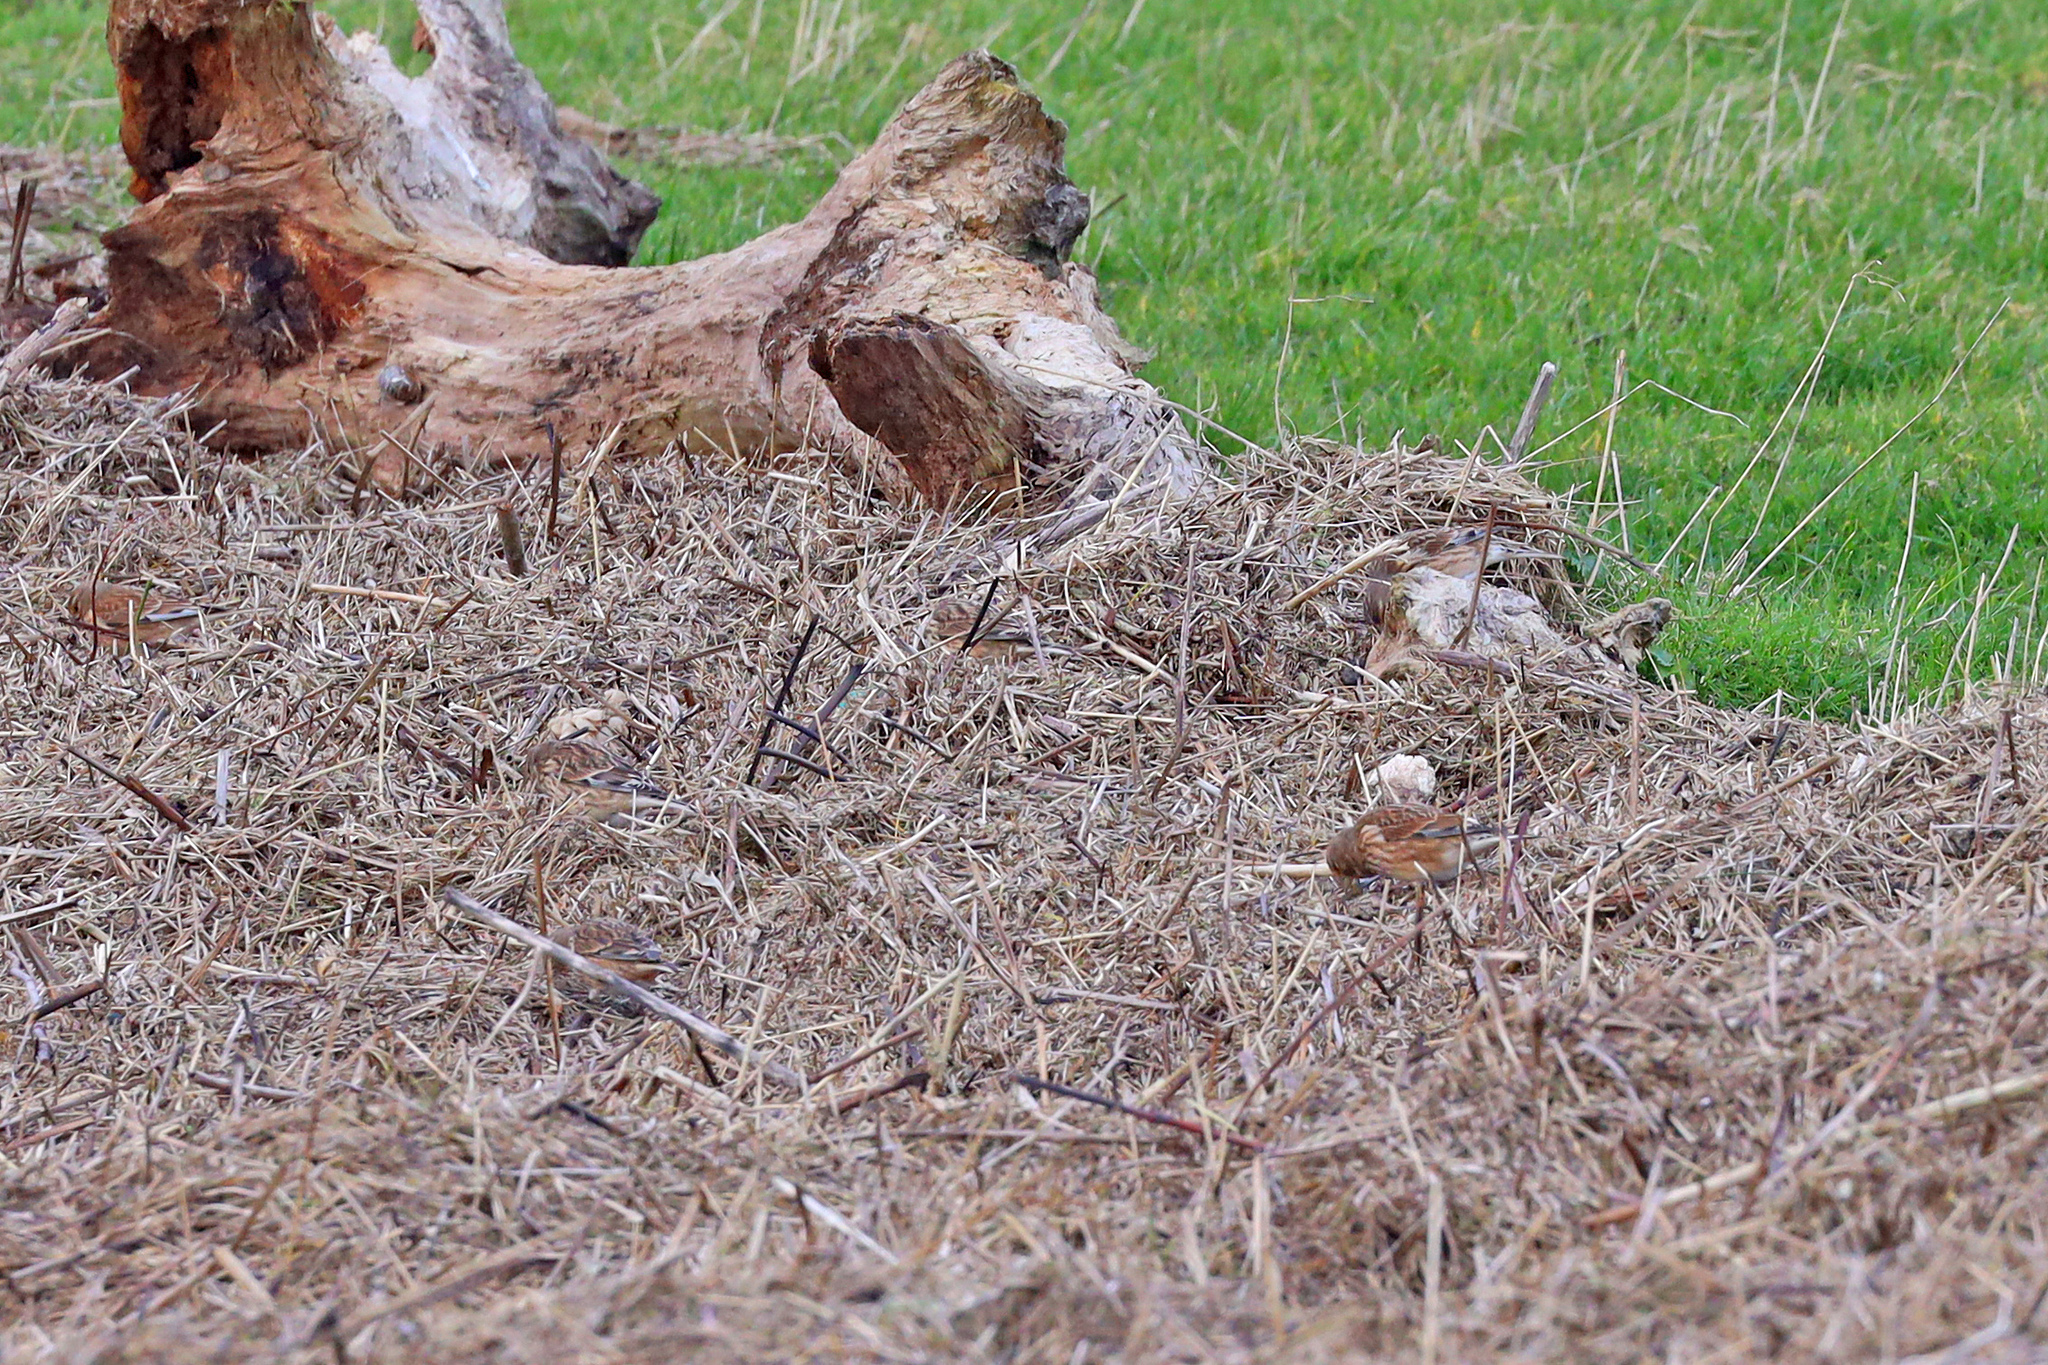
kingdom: Animalia
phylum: Chordata
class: Aves
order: Passeriformes
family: Fringillidae
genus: Linaria
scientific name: Linaria cannabina
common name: Common linnet
